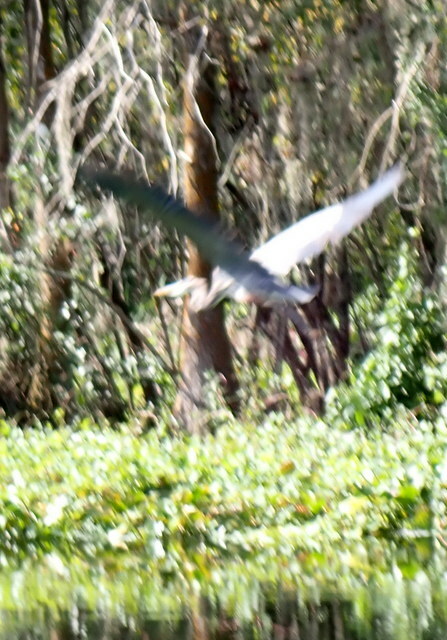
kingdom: Animalia
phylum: Chordata
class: Aves
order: Pelecaniformes
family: Ardeidae
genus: Ardea
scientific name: Ardea herodias
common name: Great blue heron
